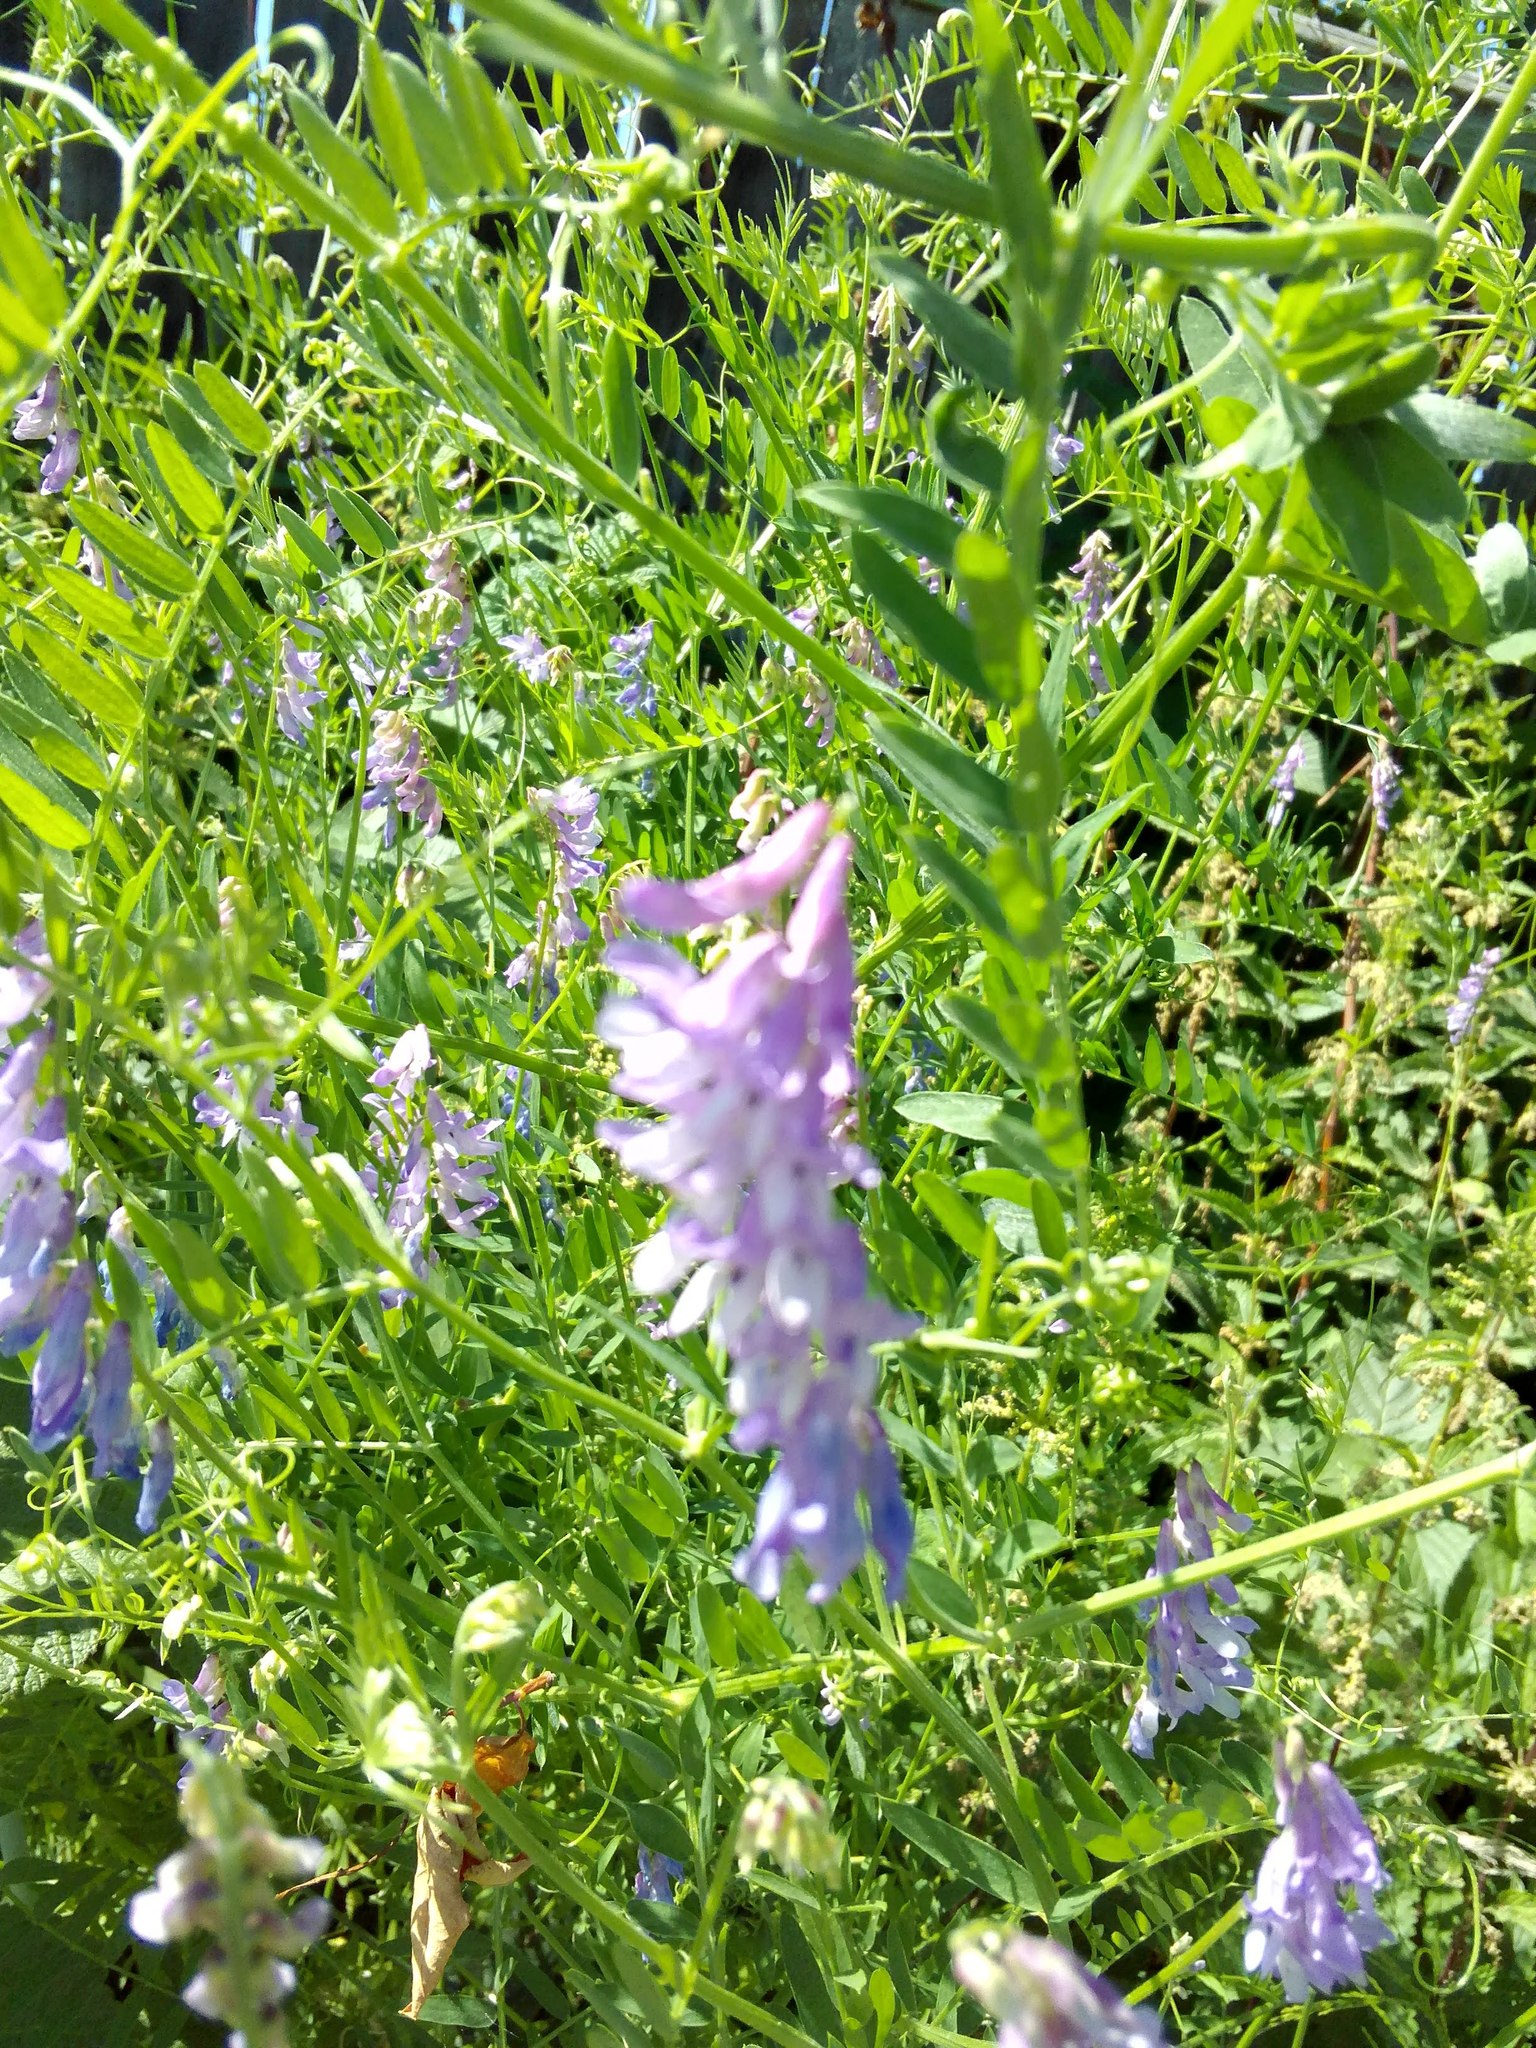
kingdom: Plantae
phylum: Tracheophyta
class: Magnoliopsida
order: Fabales
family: Fabaceae
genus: Vicia
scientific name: Vicia cracca
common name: Bird vetch
